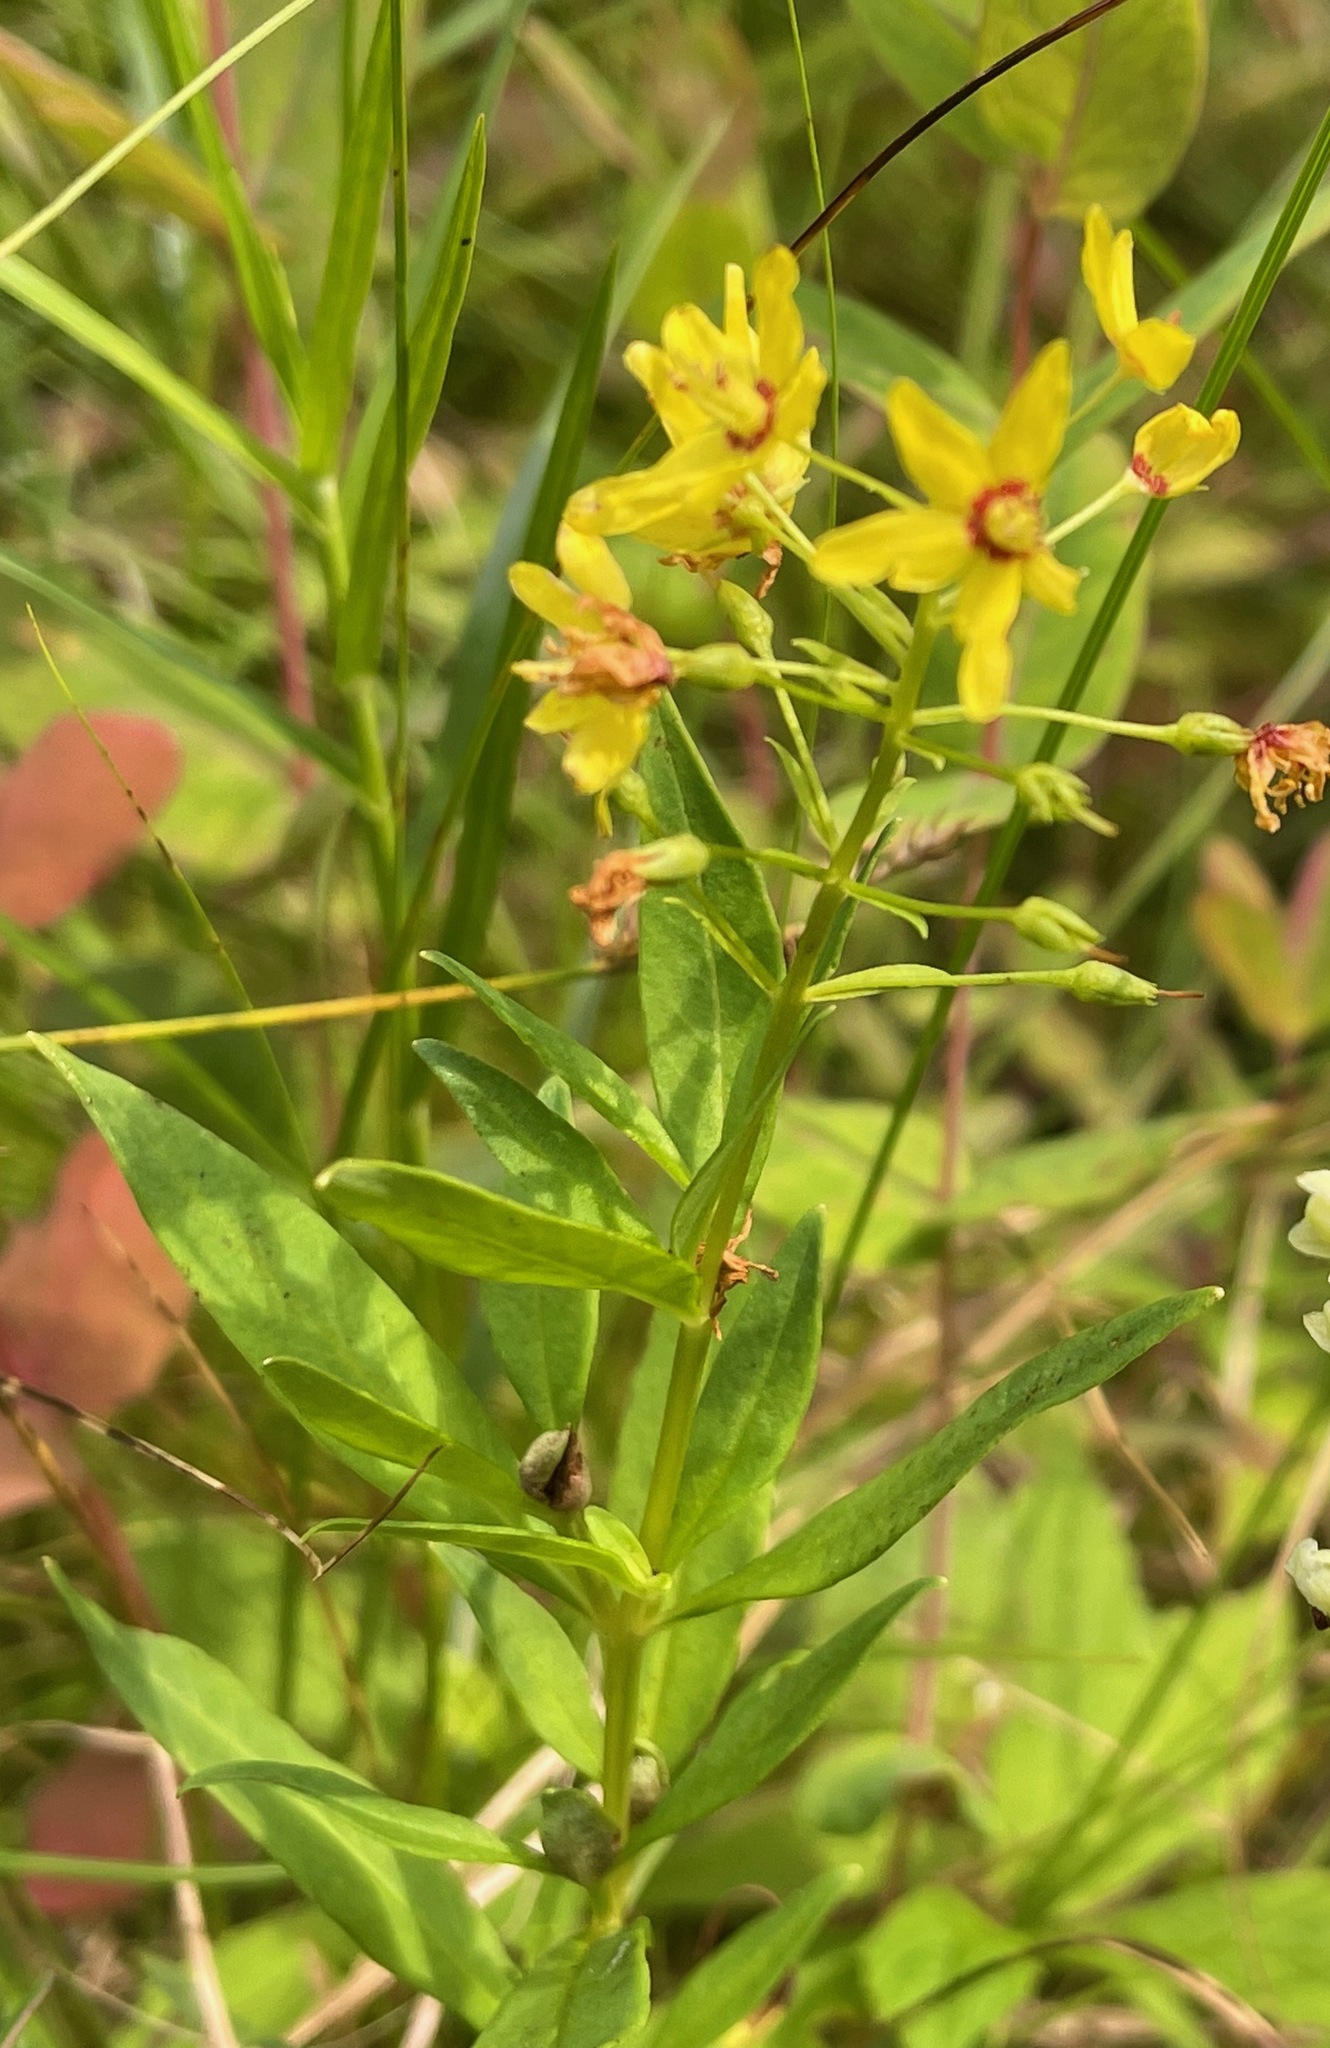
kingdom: Plantae
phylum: Tracheophyta
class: Magnoliopsida
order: Ericales
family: Primulaceae
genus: Lysimachia
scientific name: Lysimachia terrestris
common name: Lake loosestrife
